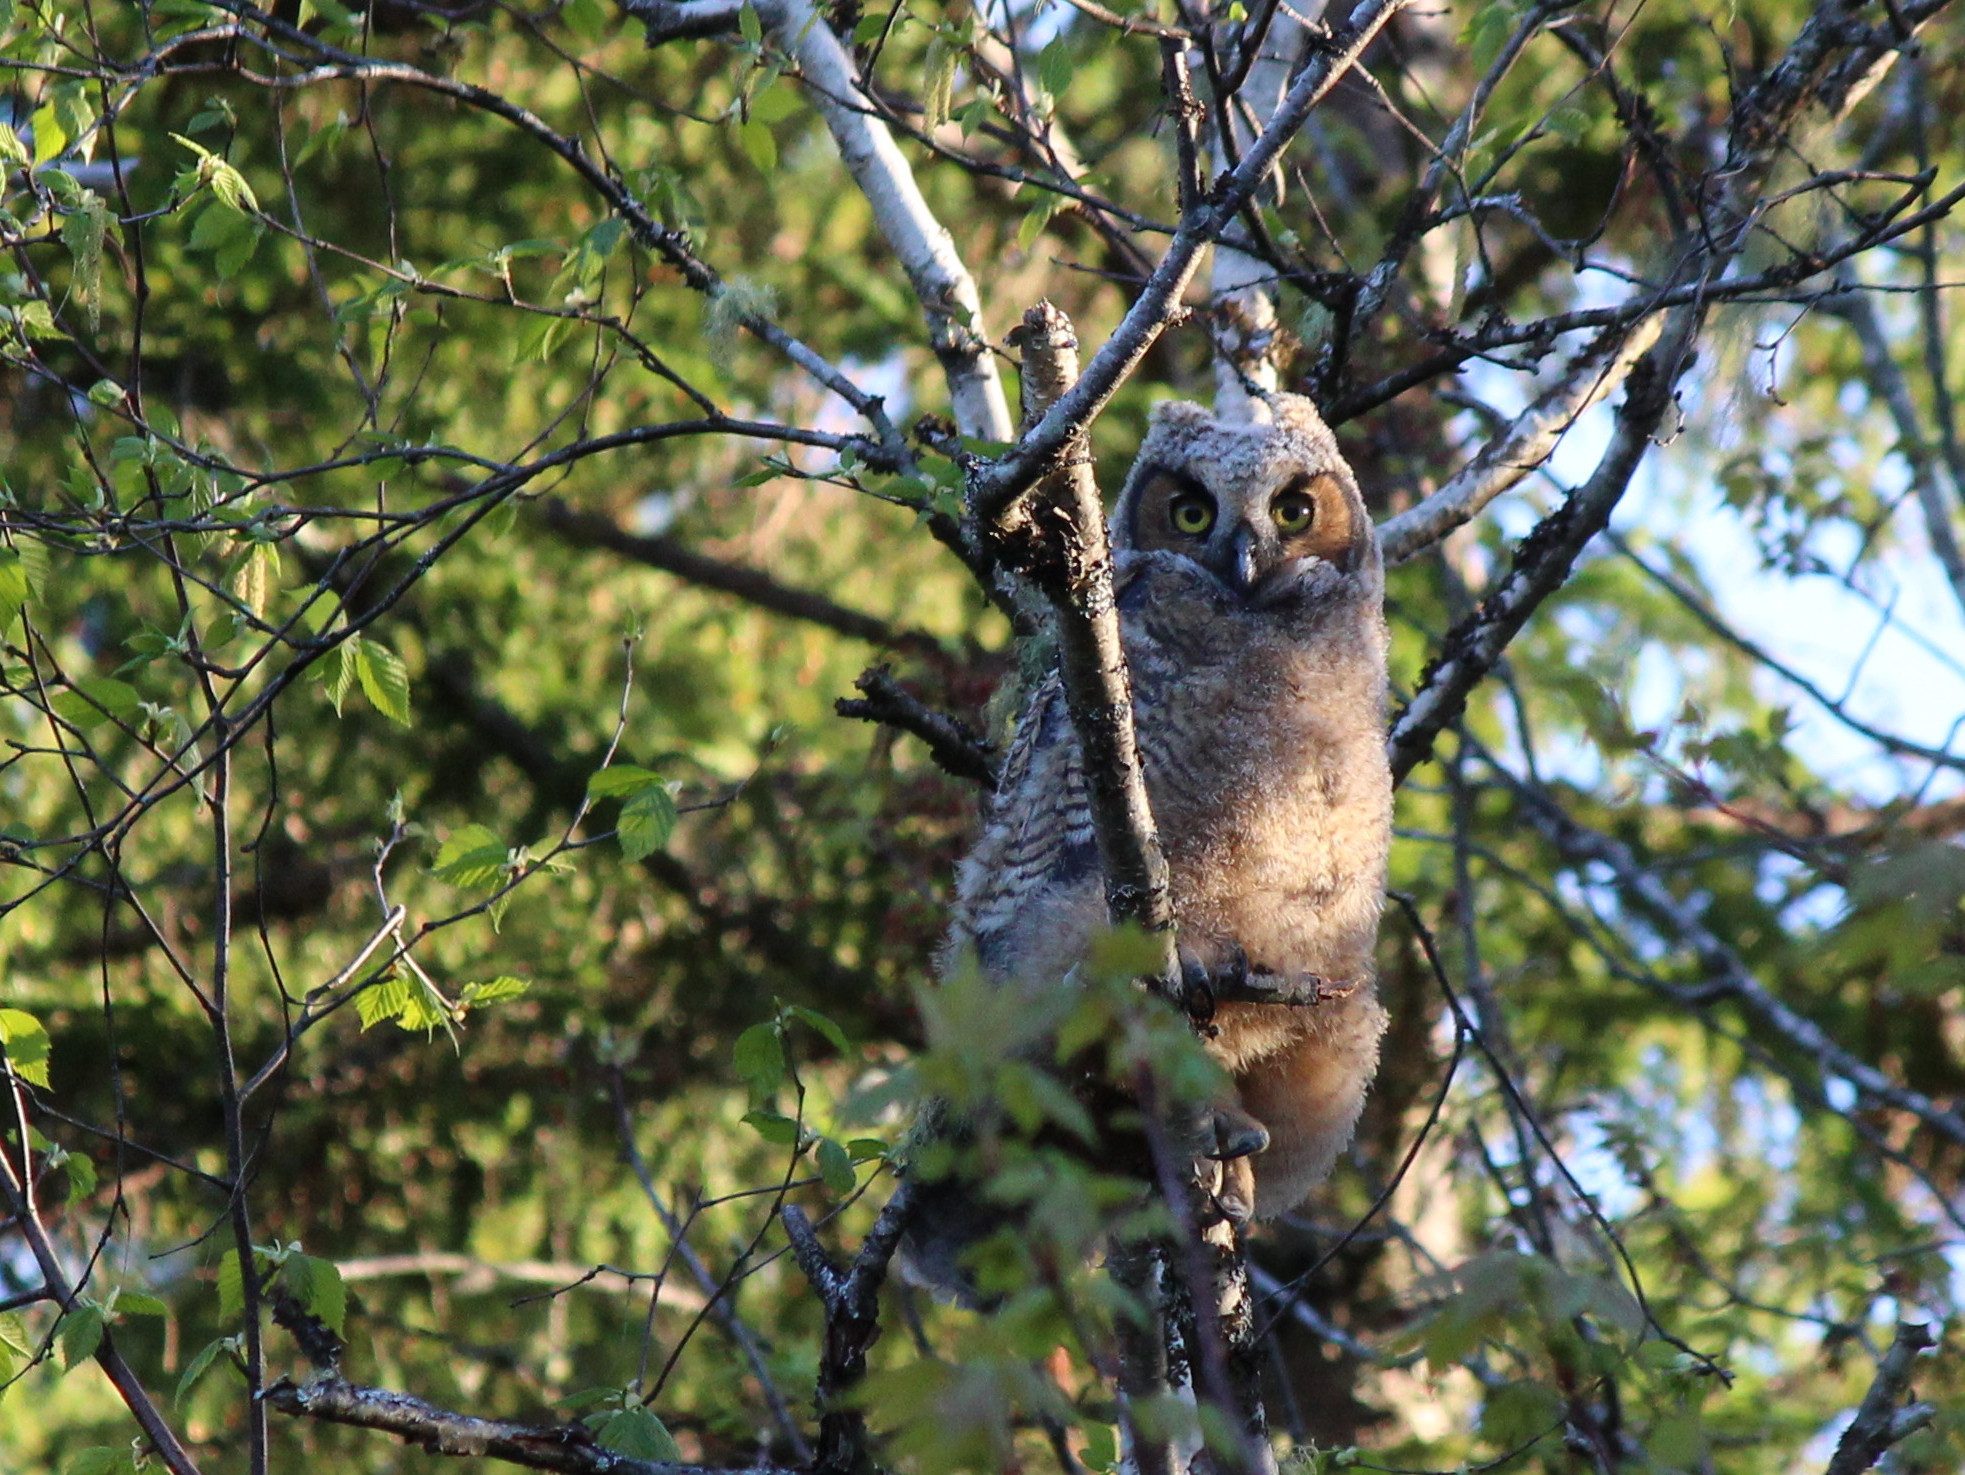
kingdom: Animalia
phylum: Chordata
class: Aves
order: Strigiformes
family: Strigidae
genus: Bubo
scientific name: Bubo virginianus
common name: Great horned owl
